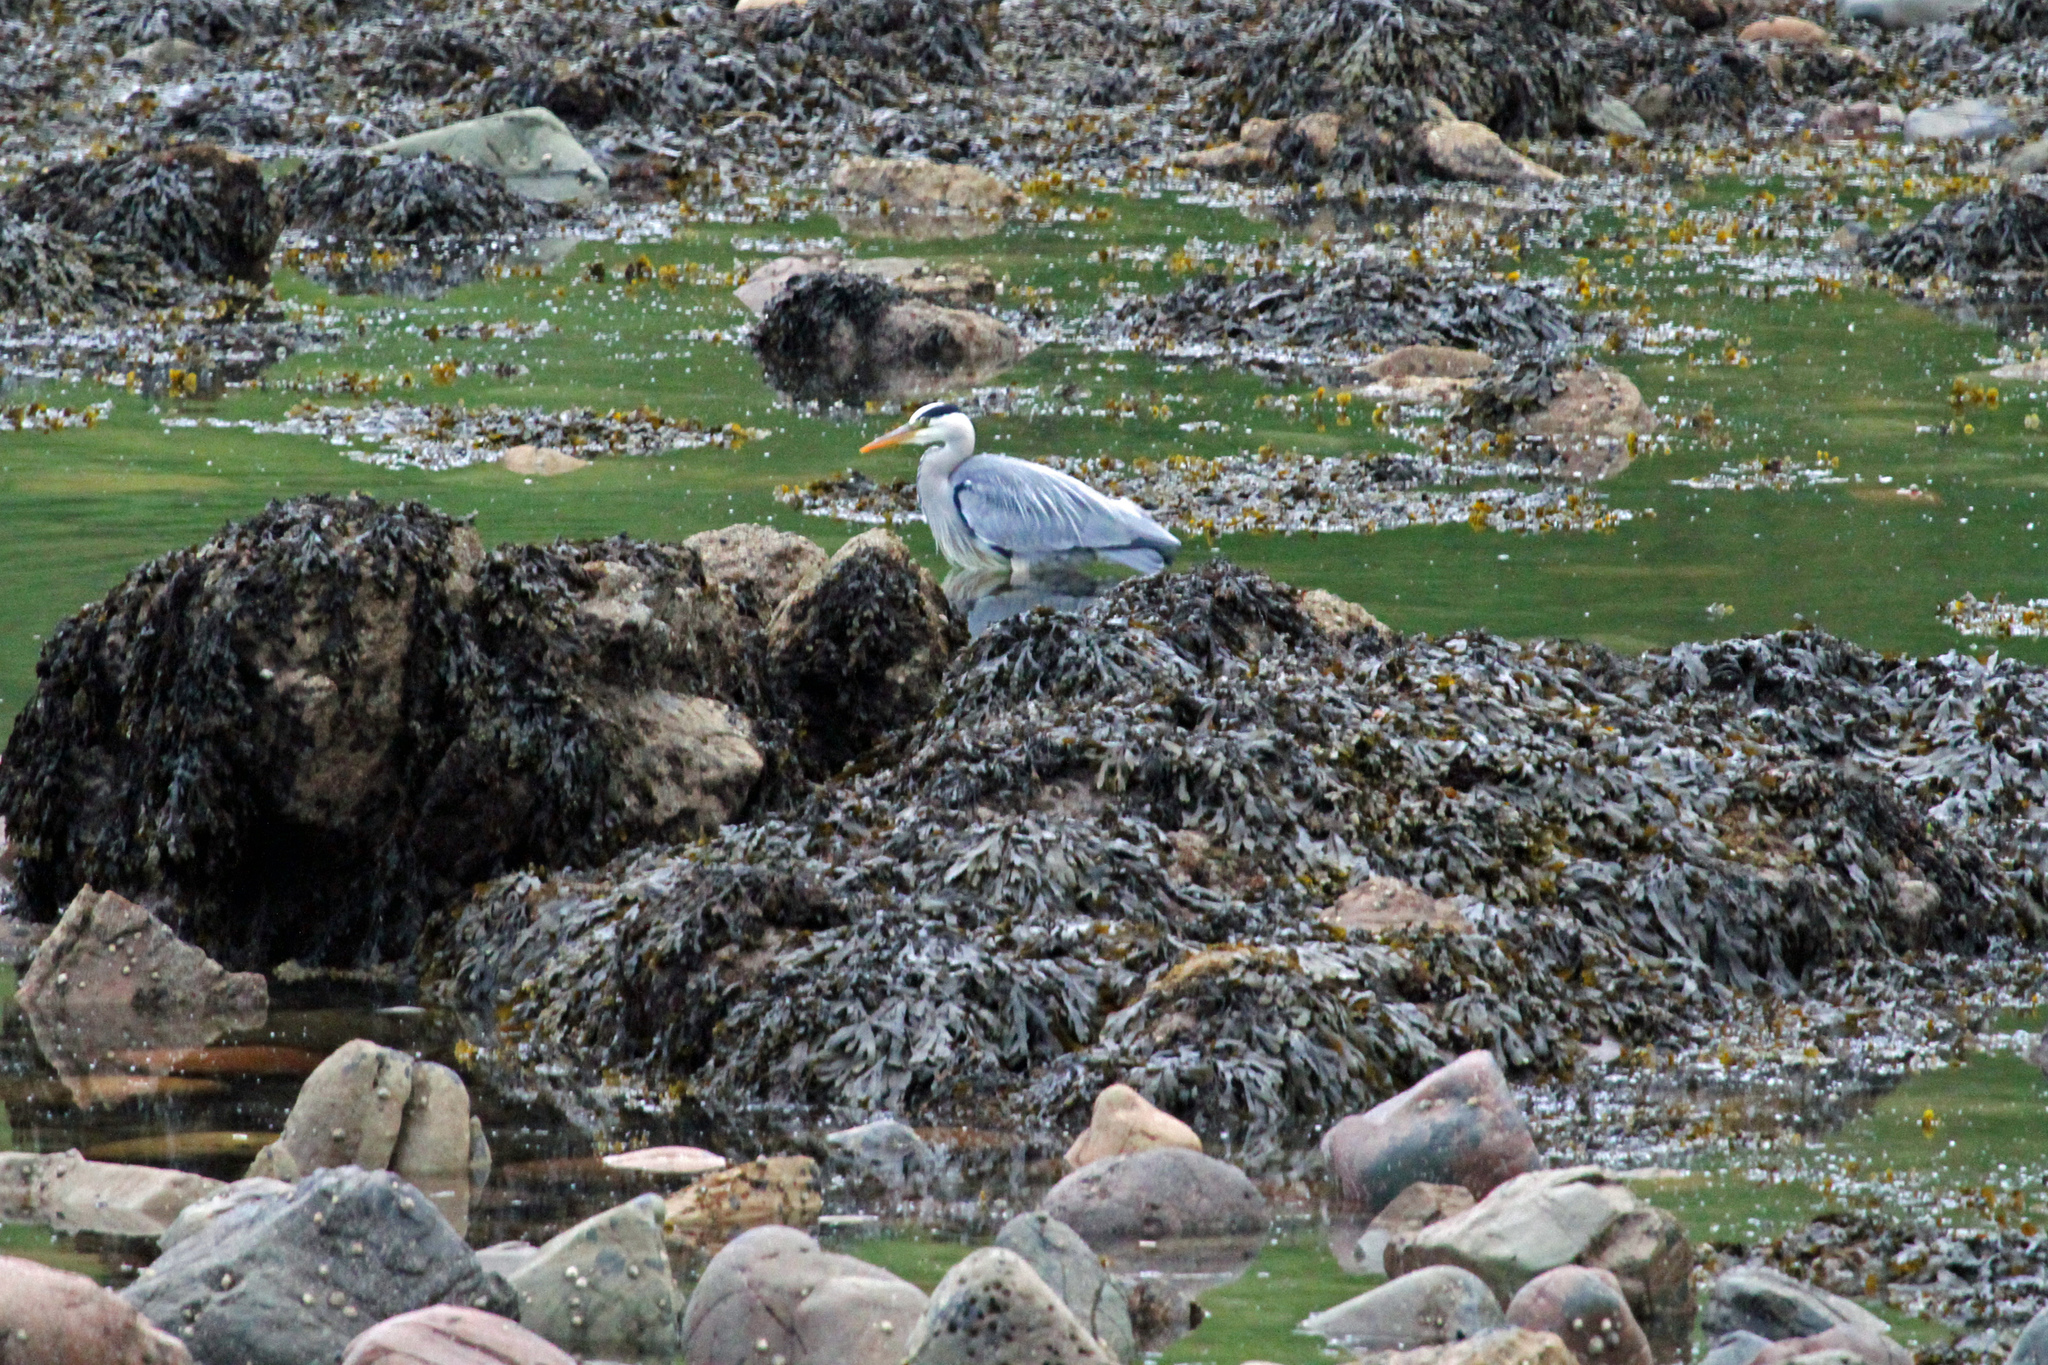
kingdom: Animalia
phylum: Chordata
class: Aves
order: Pelecaniformes
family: Ardeidae
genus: Ardea
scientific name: Ardea cinerea
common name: Grey heron
